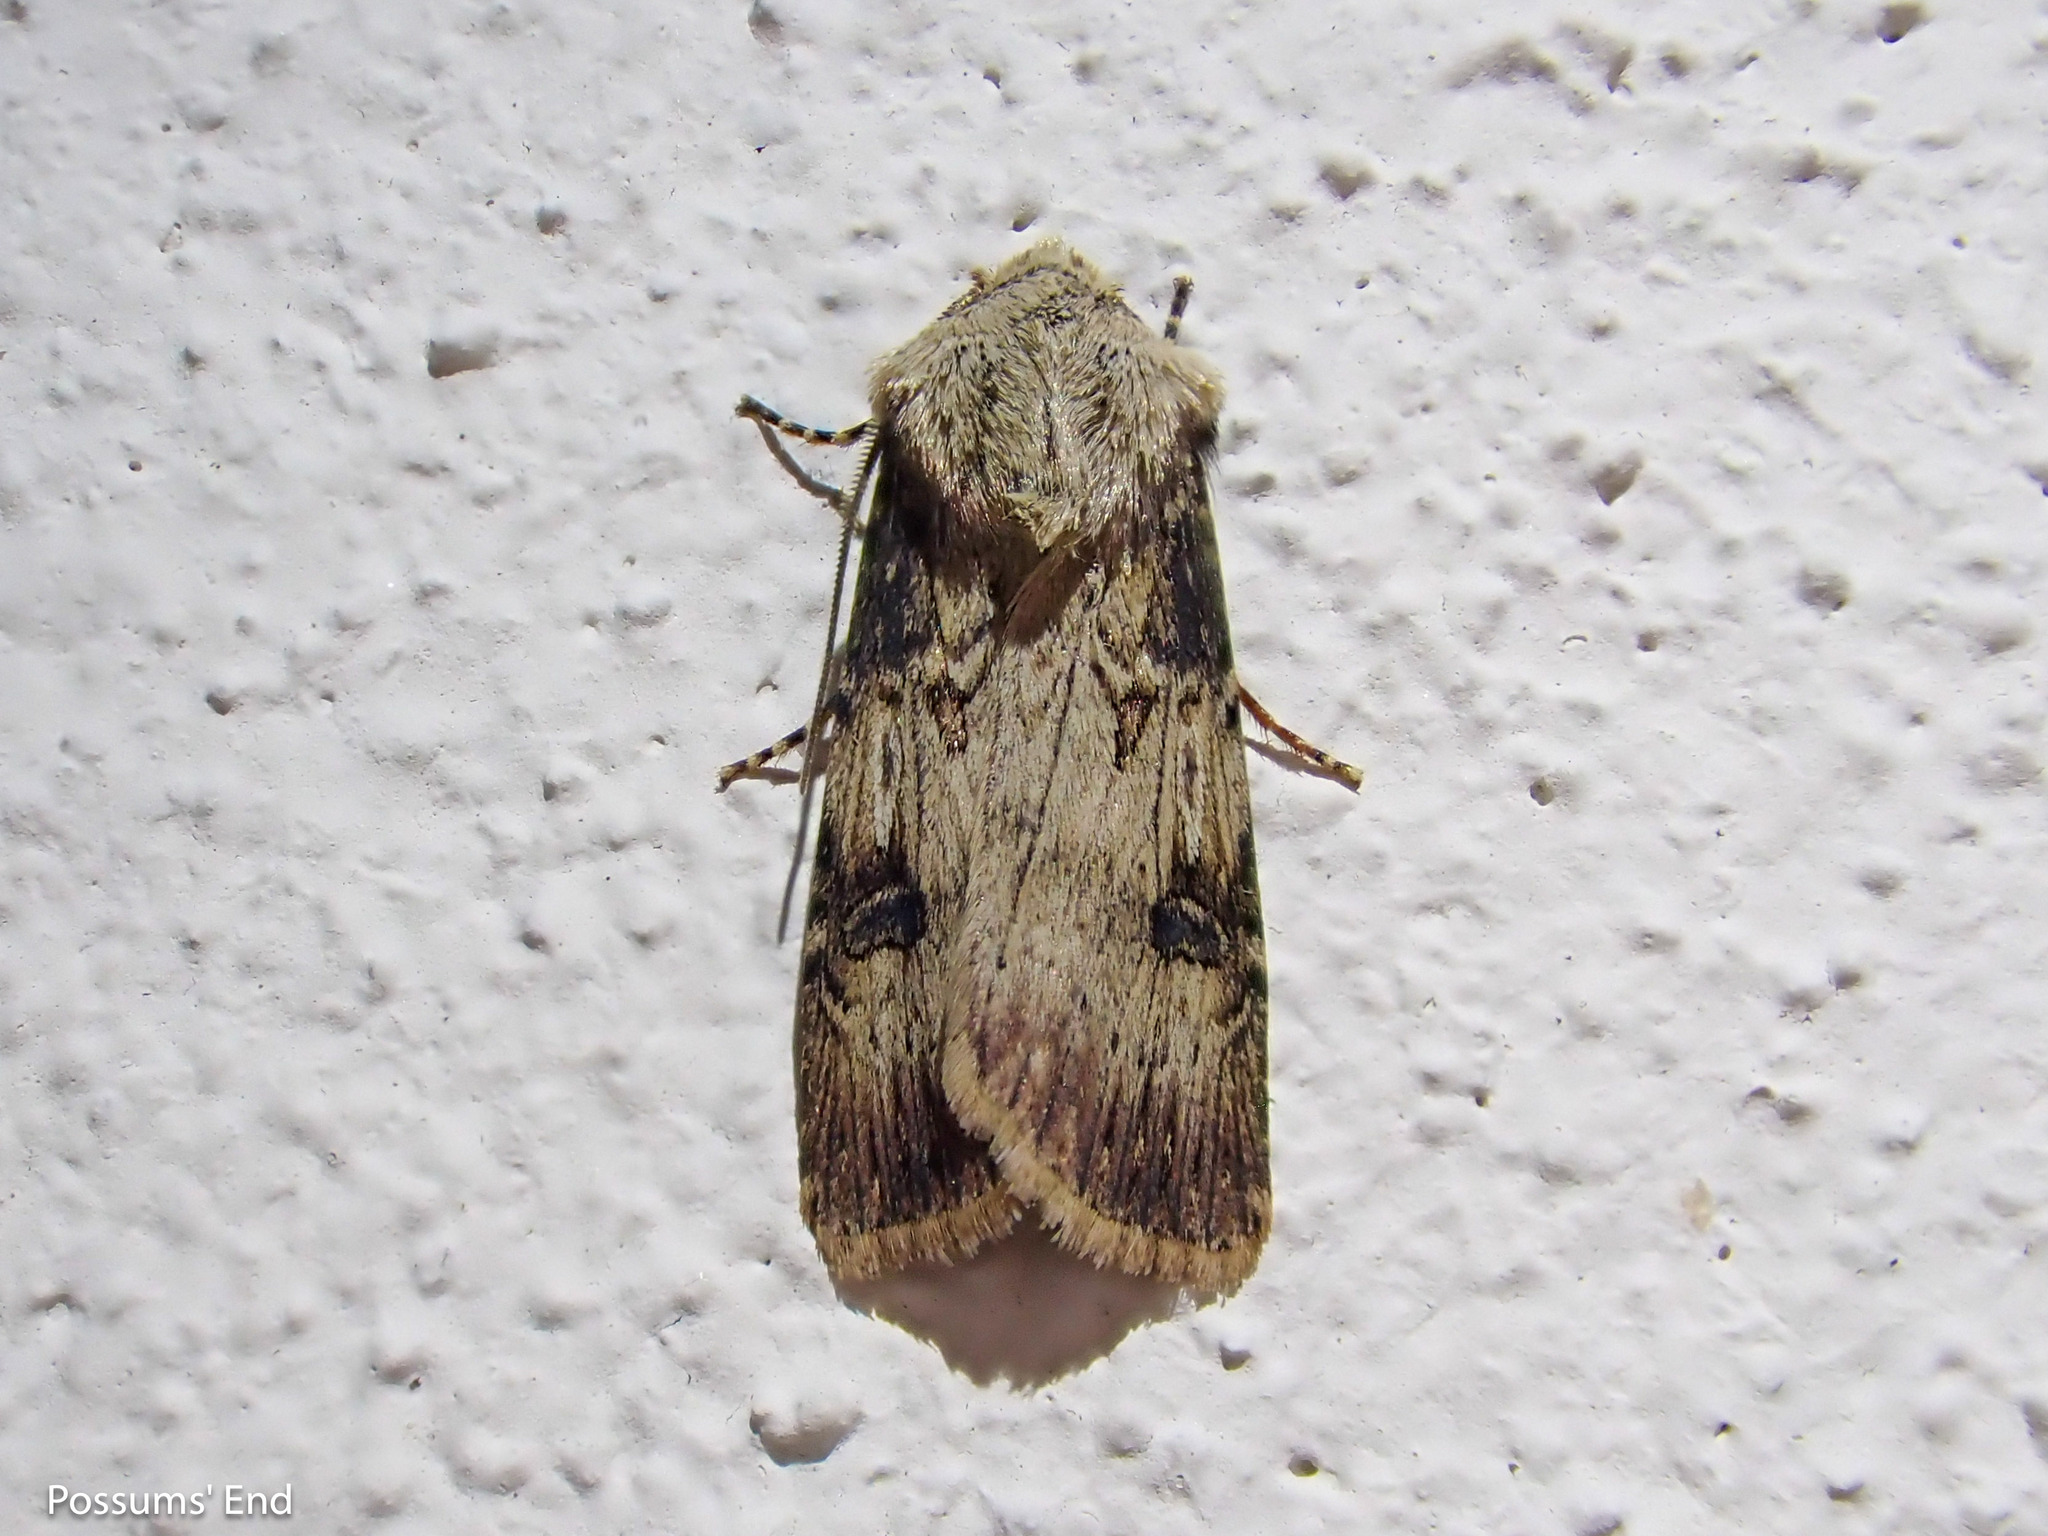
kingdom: Animalia
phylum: Arthropoda
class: Insecta
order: Lepidoptera
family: Noctuidae
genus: Agrotis
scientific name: Agrotis puta
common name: Shuttle-shaped dart
